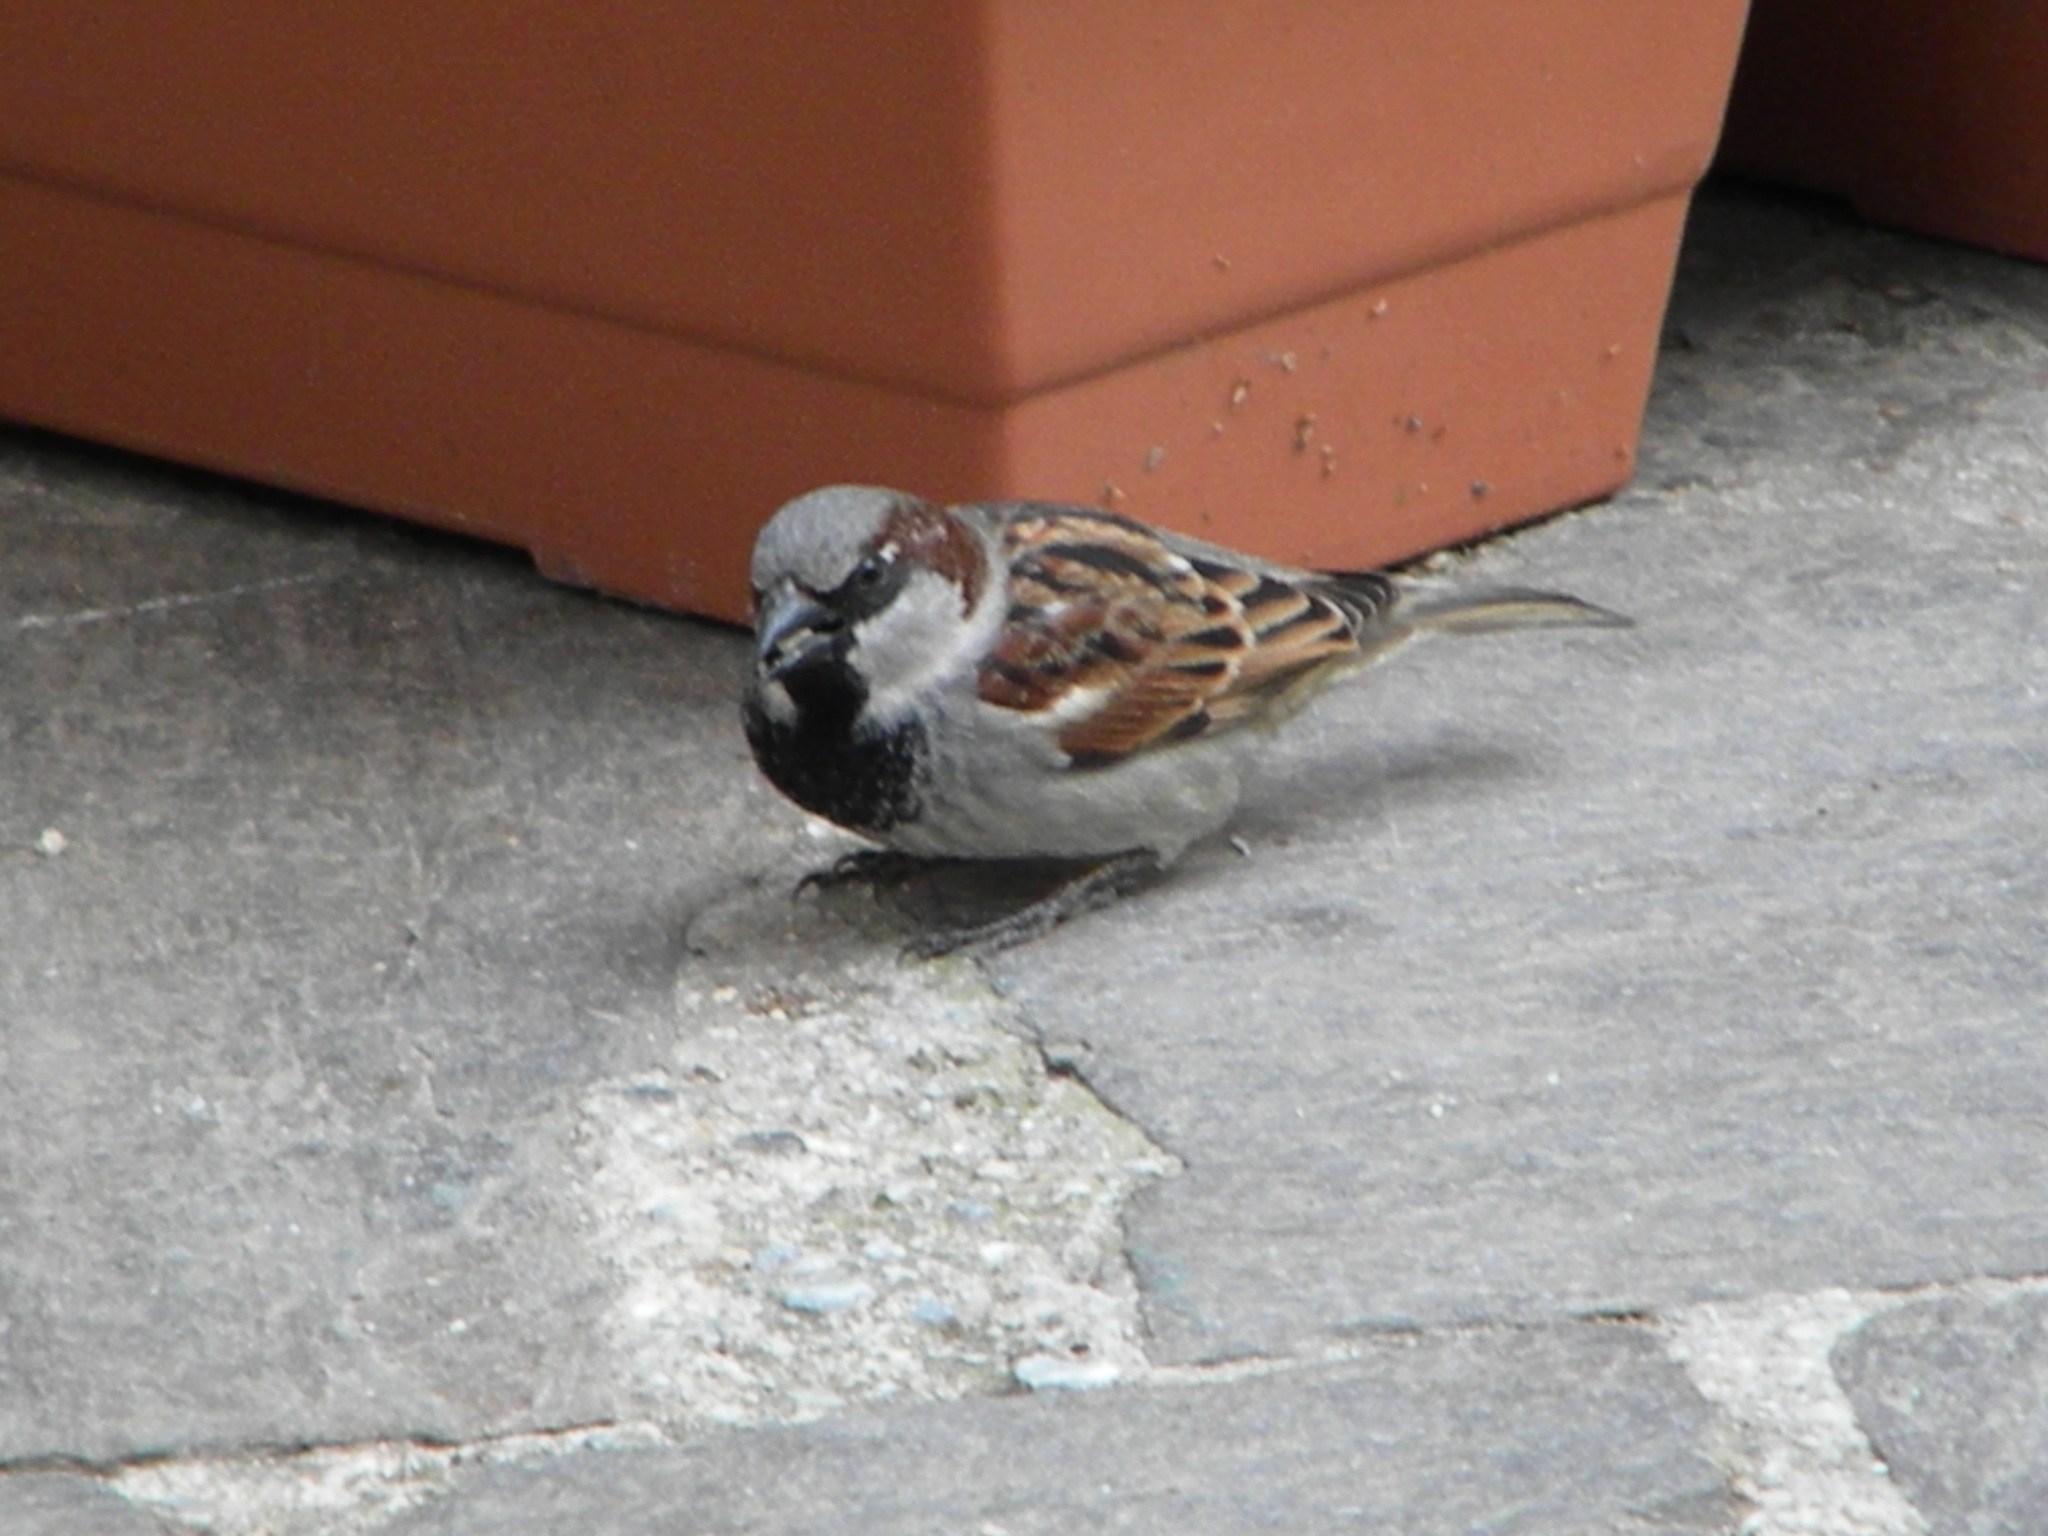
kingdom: Animalia
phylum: Chordata
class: Aves
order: Passeriformes
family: Passeridae
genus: Passer
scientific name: Passer domesticus
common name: House sparrow
